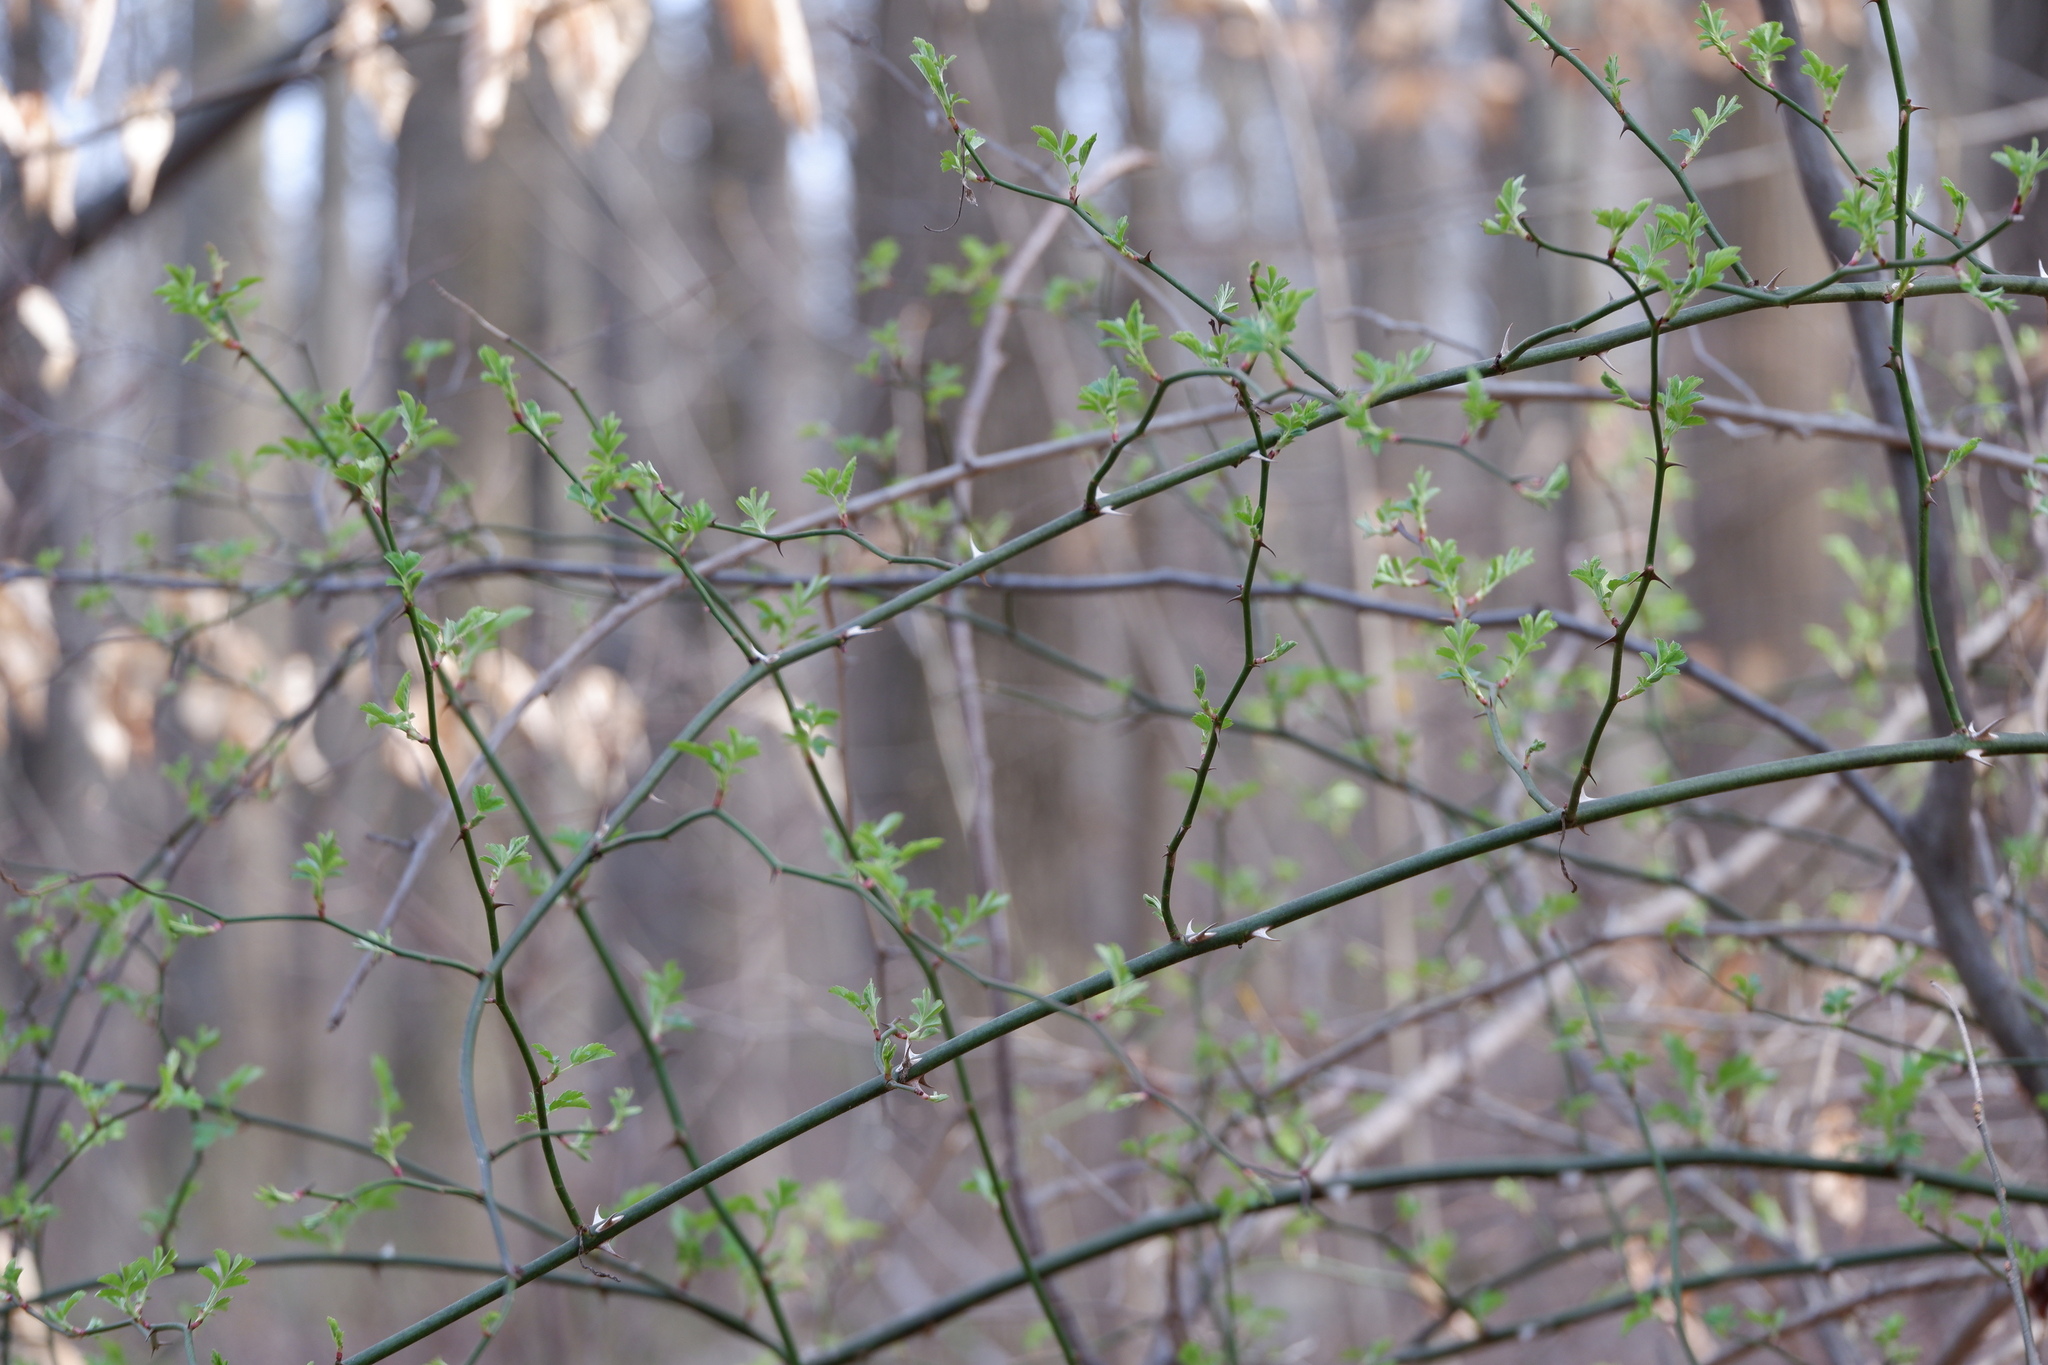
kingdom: Plantae
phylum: Tracheophyta
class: Magnoliopsida
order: Rosales
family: Rosaceae
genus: Rosa
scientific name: Rosa multiflora
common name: Multiflora rose
